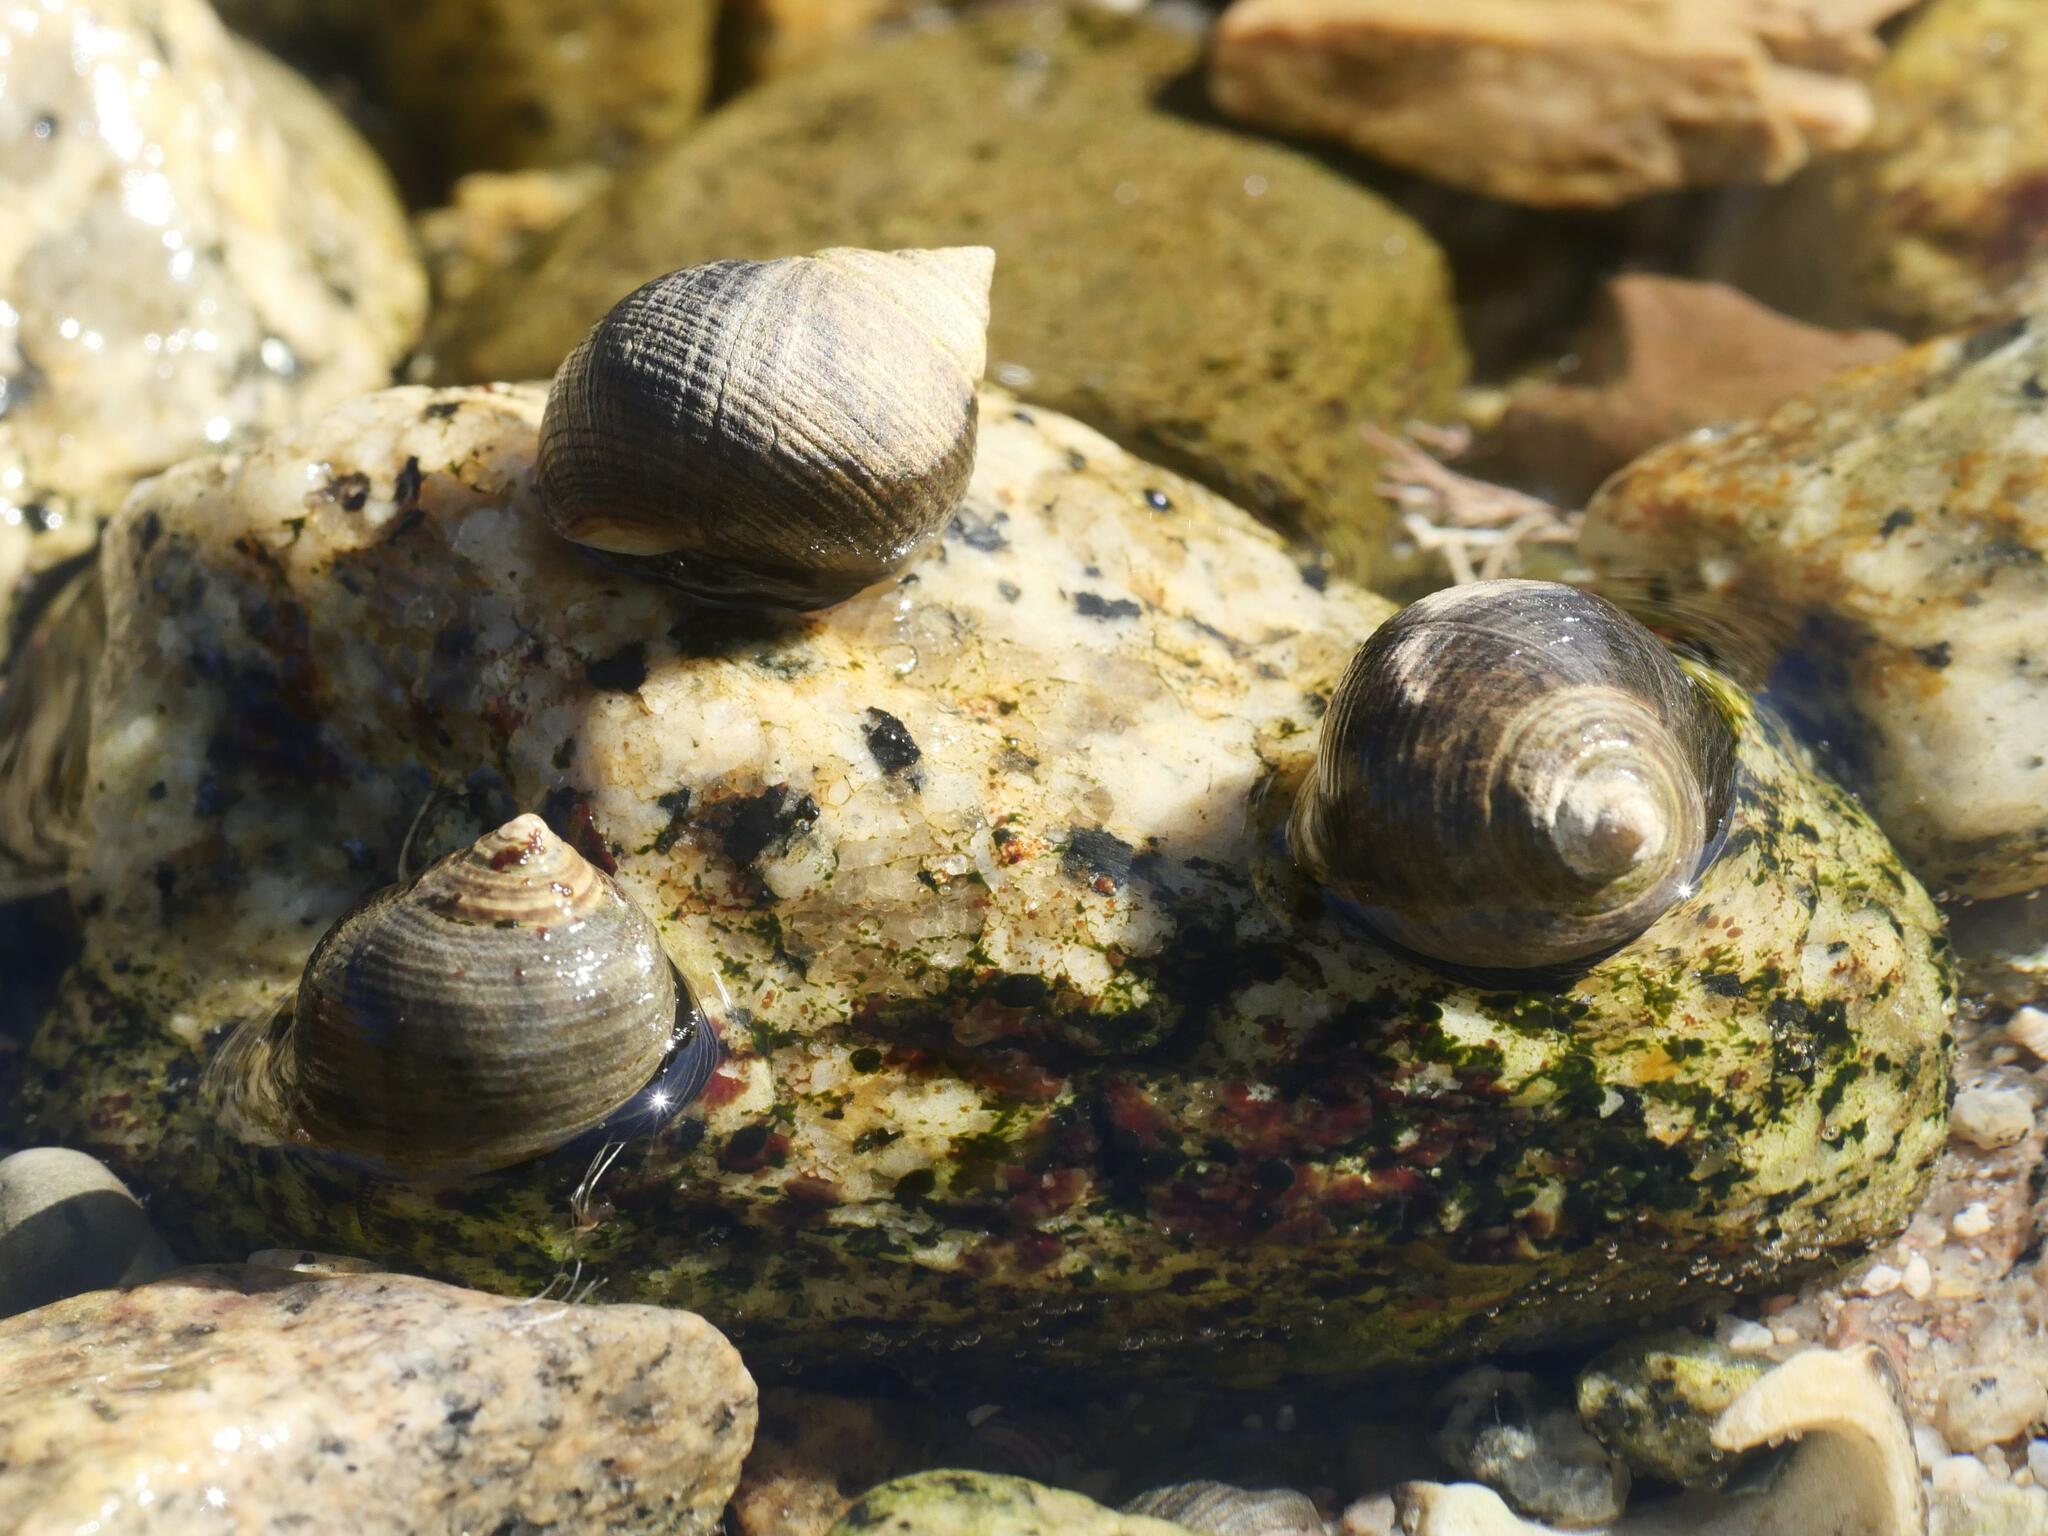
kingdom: Animalia
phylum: Mollusca
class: Gastropoda
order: Littorinimorpha
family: Littorinidae
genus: Littorina
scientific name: Littorina littorea
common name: Common periwinkle
